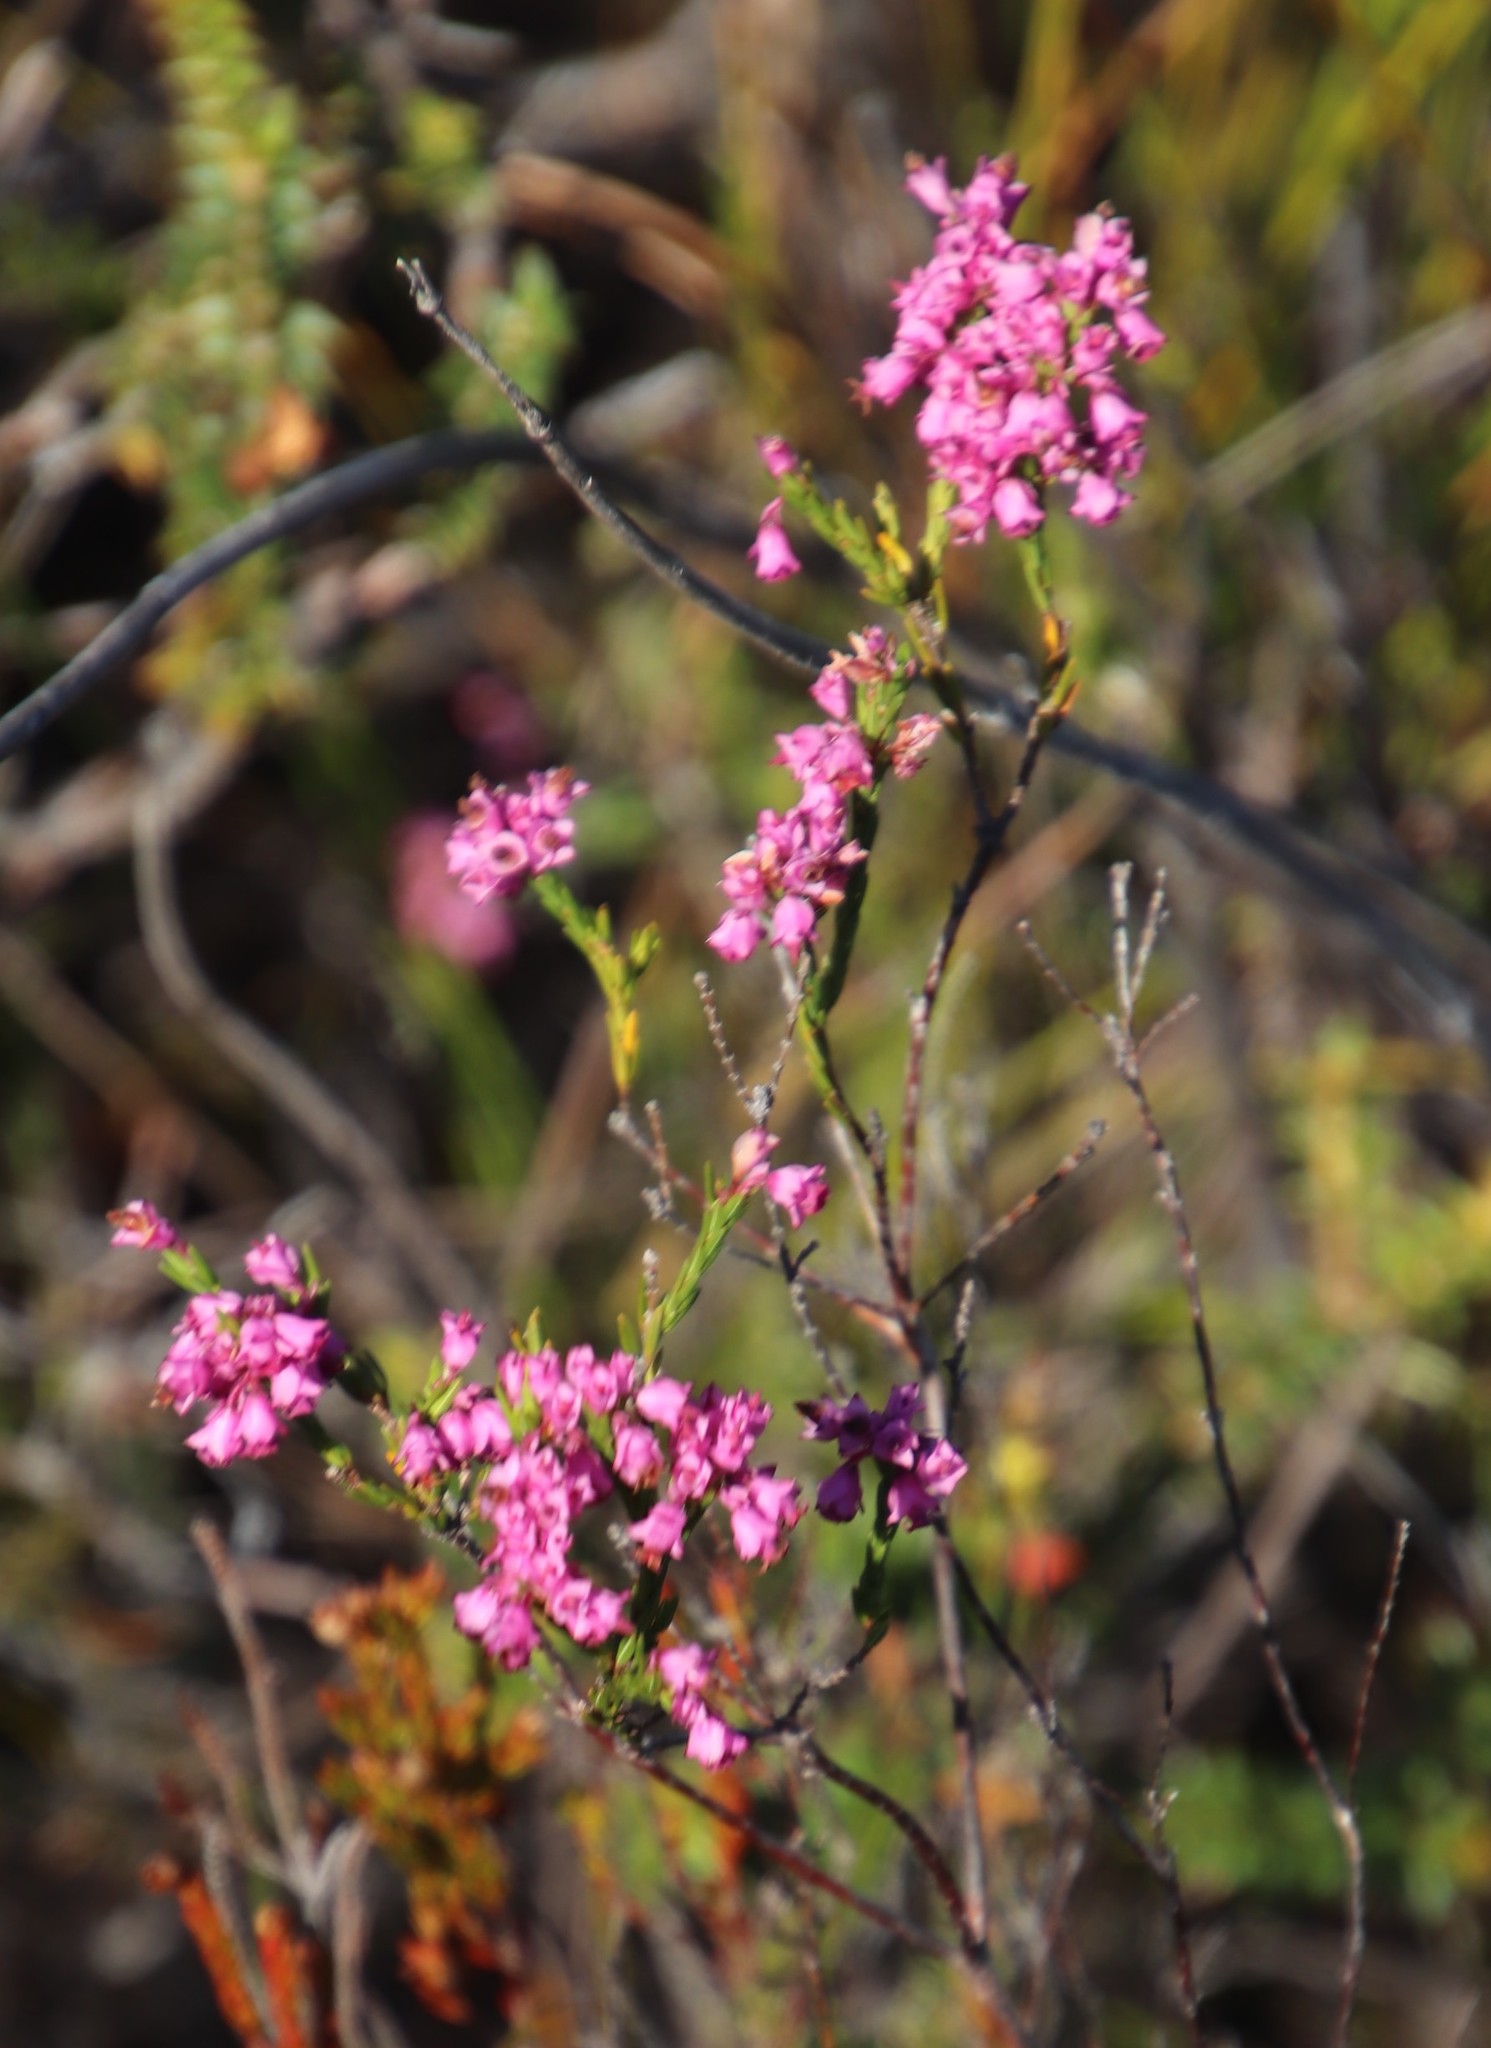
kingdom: Plantae
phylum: Tracheophyta
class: Magnoliopsida
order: Ericales
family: Ericaceae
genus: Erica
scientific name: Erica corifolia
